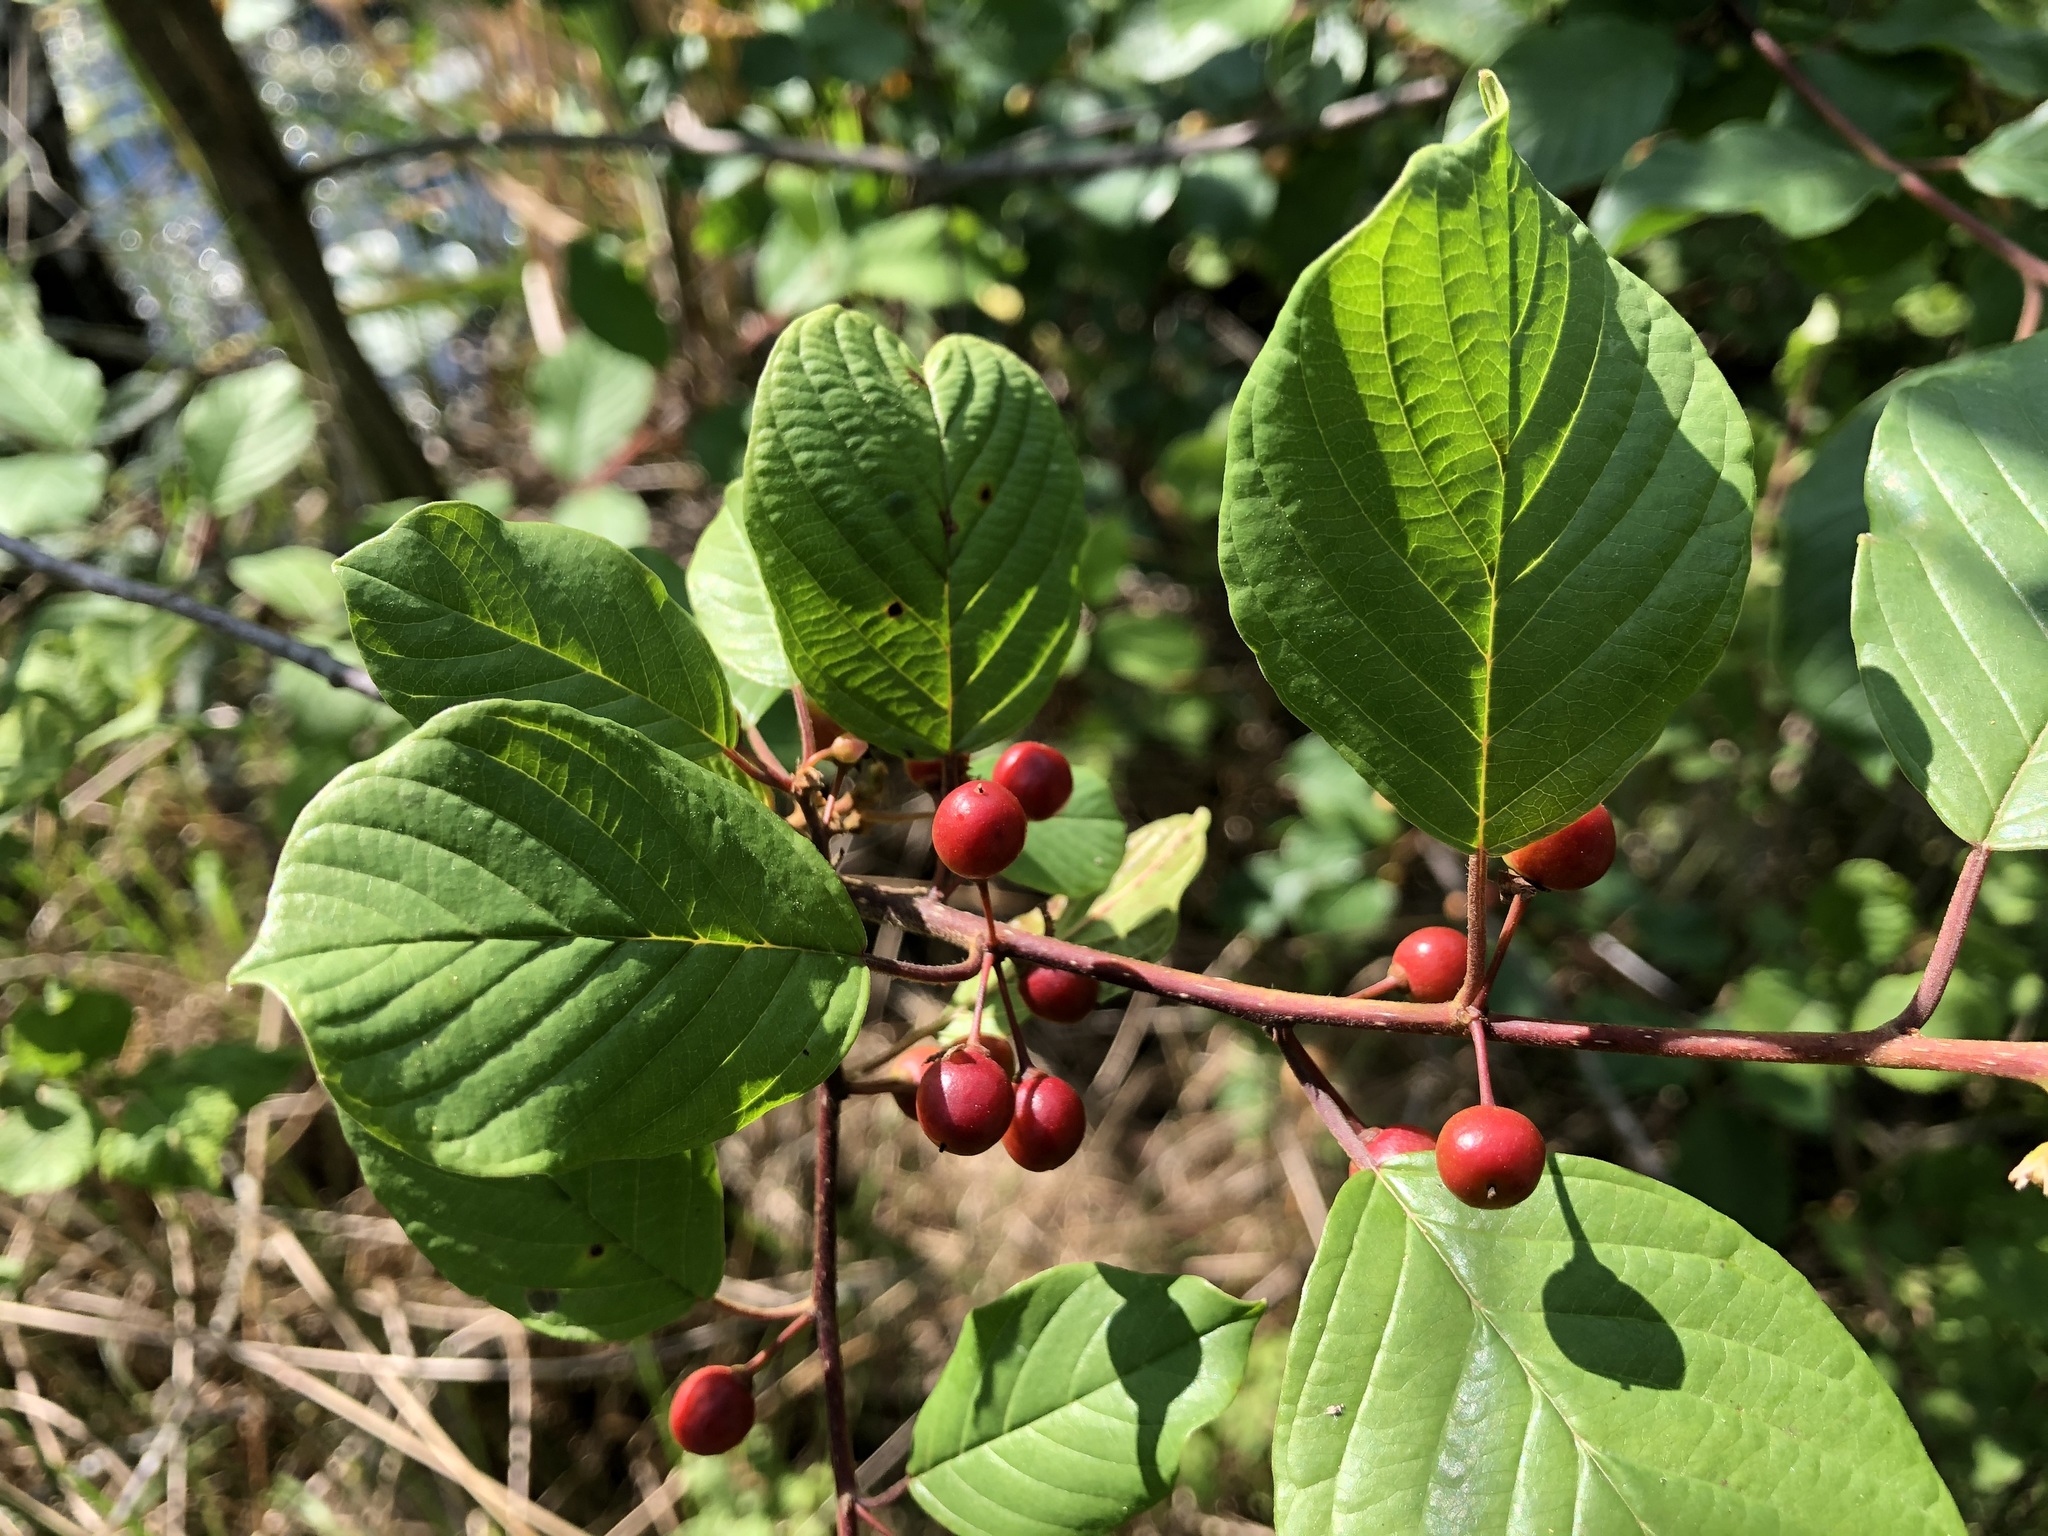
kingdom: Plantae
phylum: Tracheophyta
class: Magnoliopsida
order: Rosales
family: Rhamnaceae
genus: Frangula
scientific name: Frangula alnus
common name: Alder buckthorn
